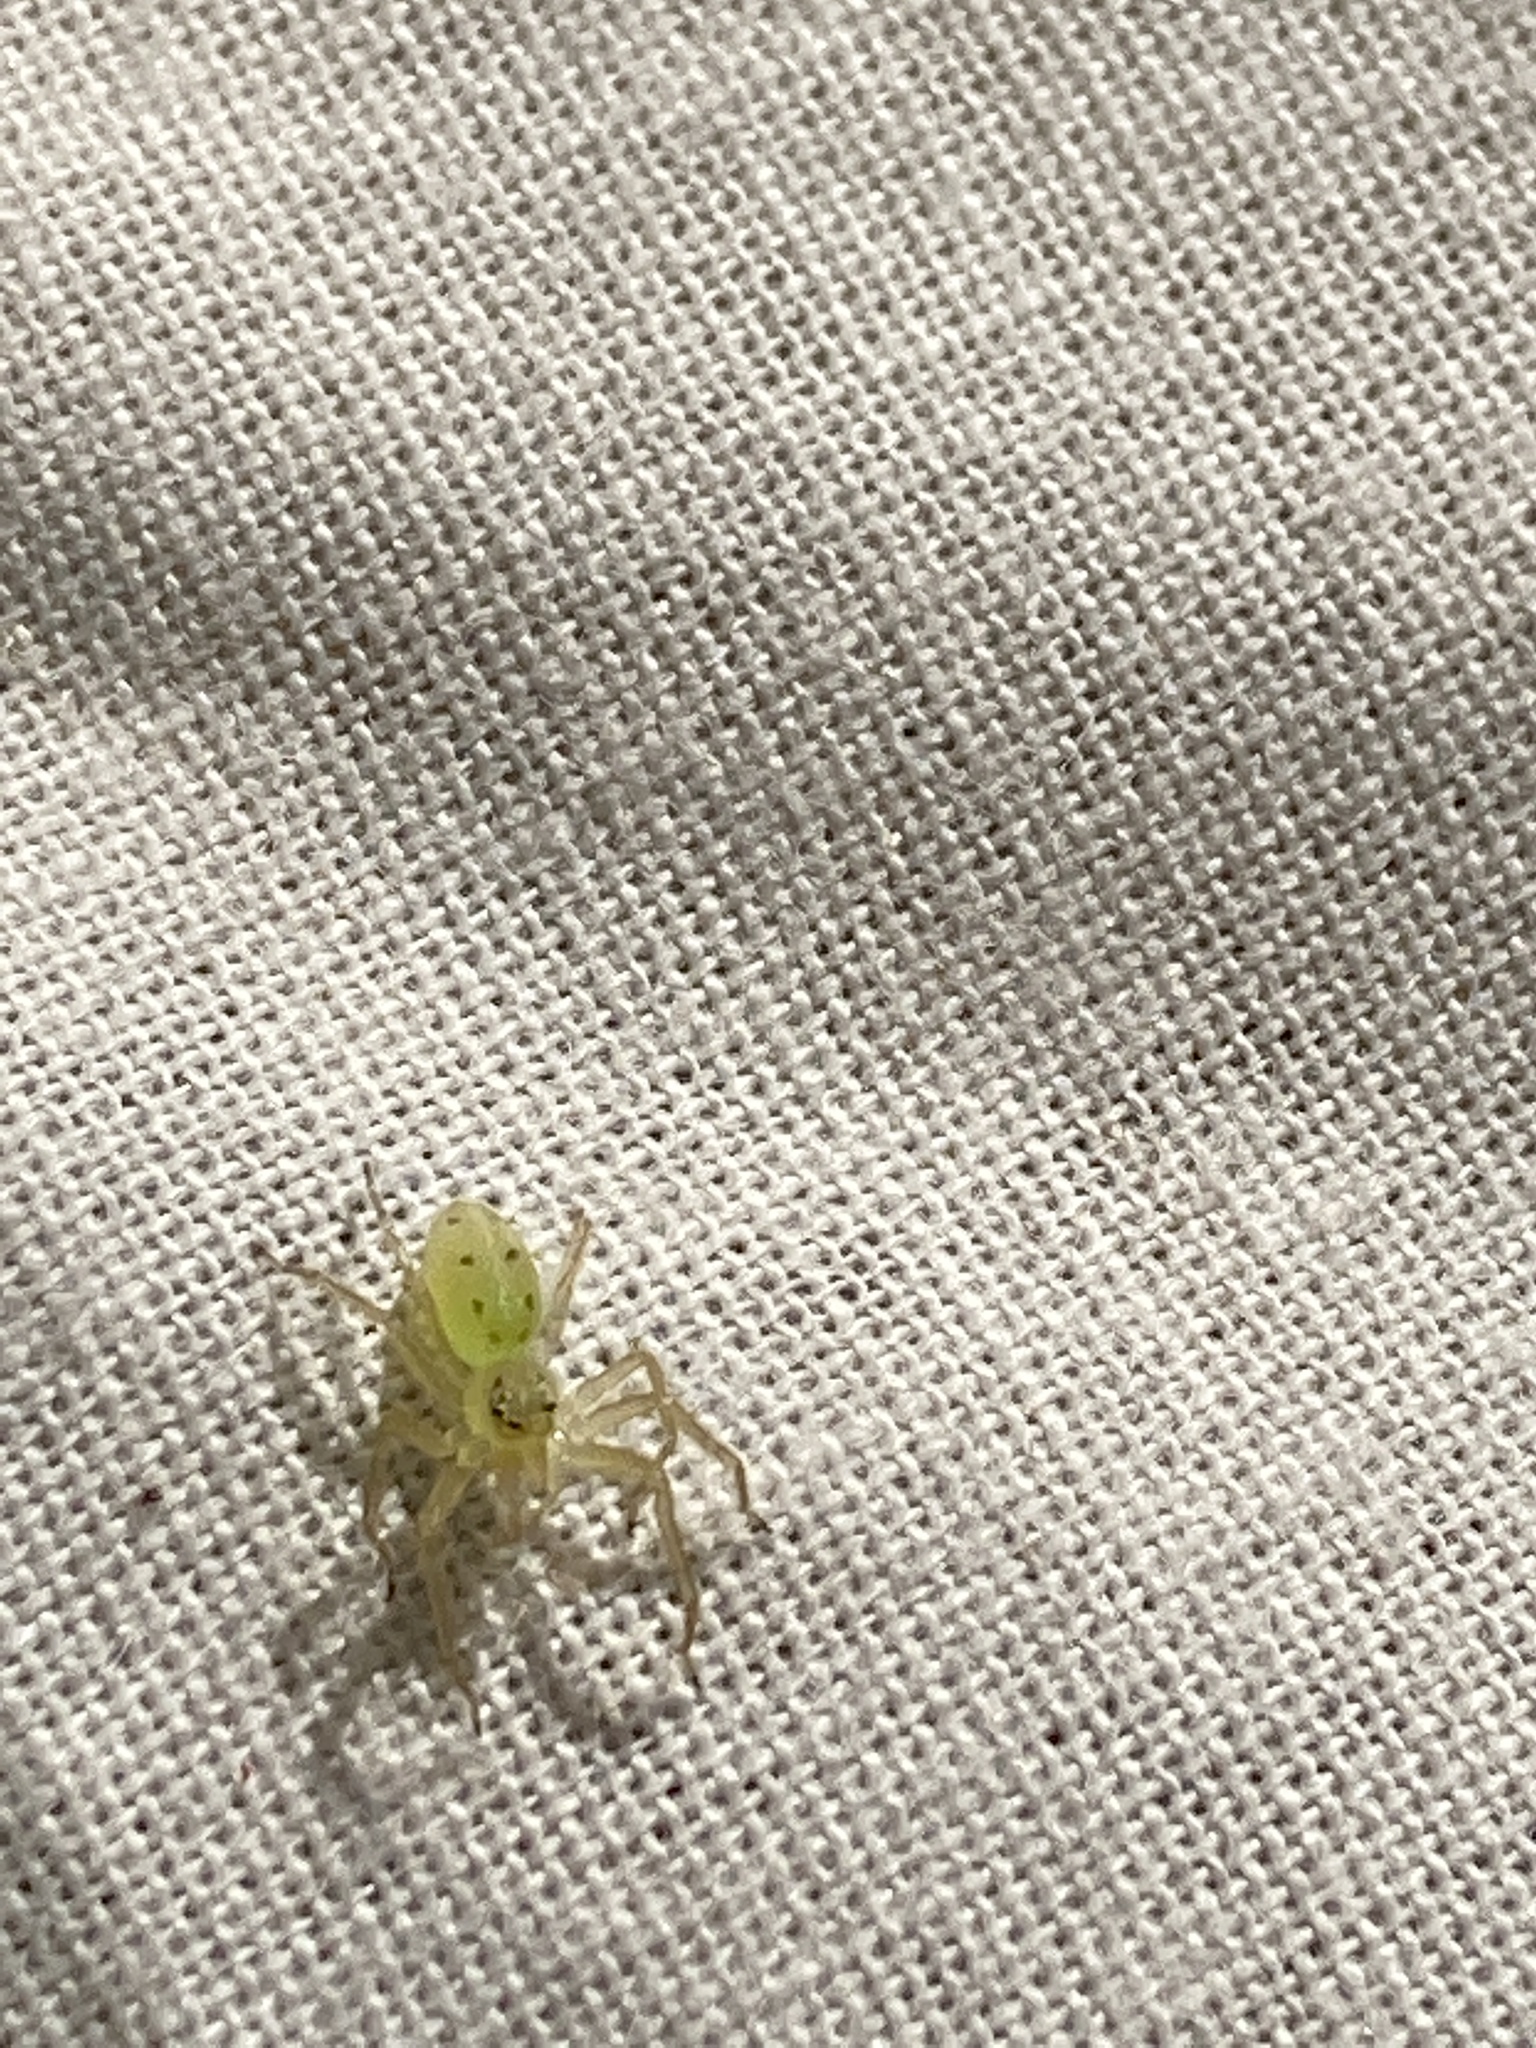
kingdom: Animalia
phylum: Arthropoda
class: Arachnida
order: Araneae
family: Salticidae
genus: Lyssomanes
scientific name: Lyssomanes viridis
